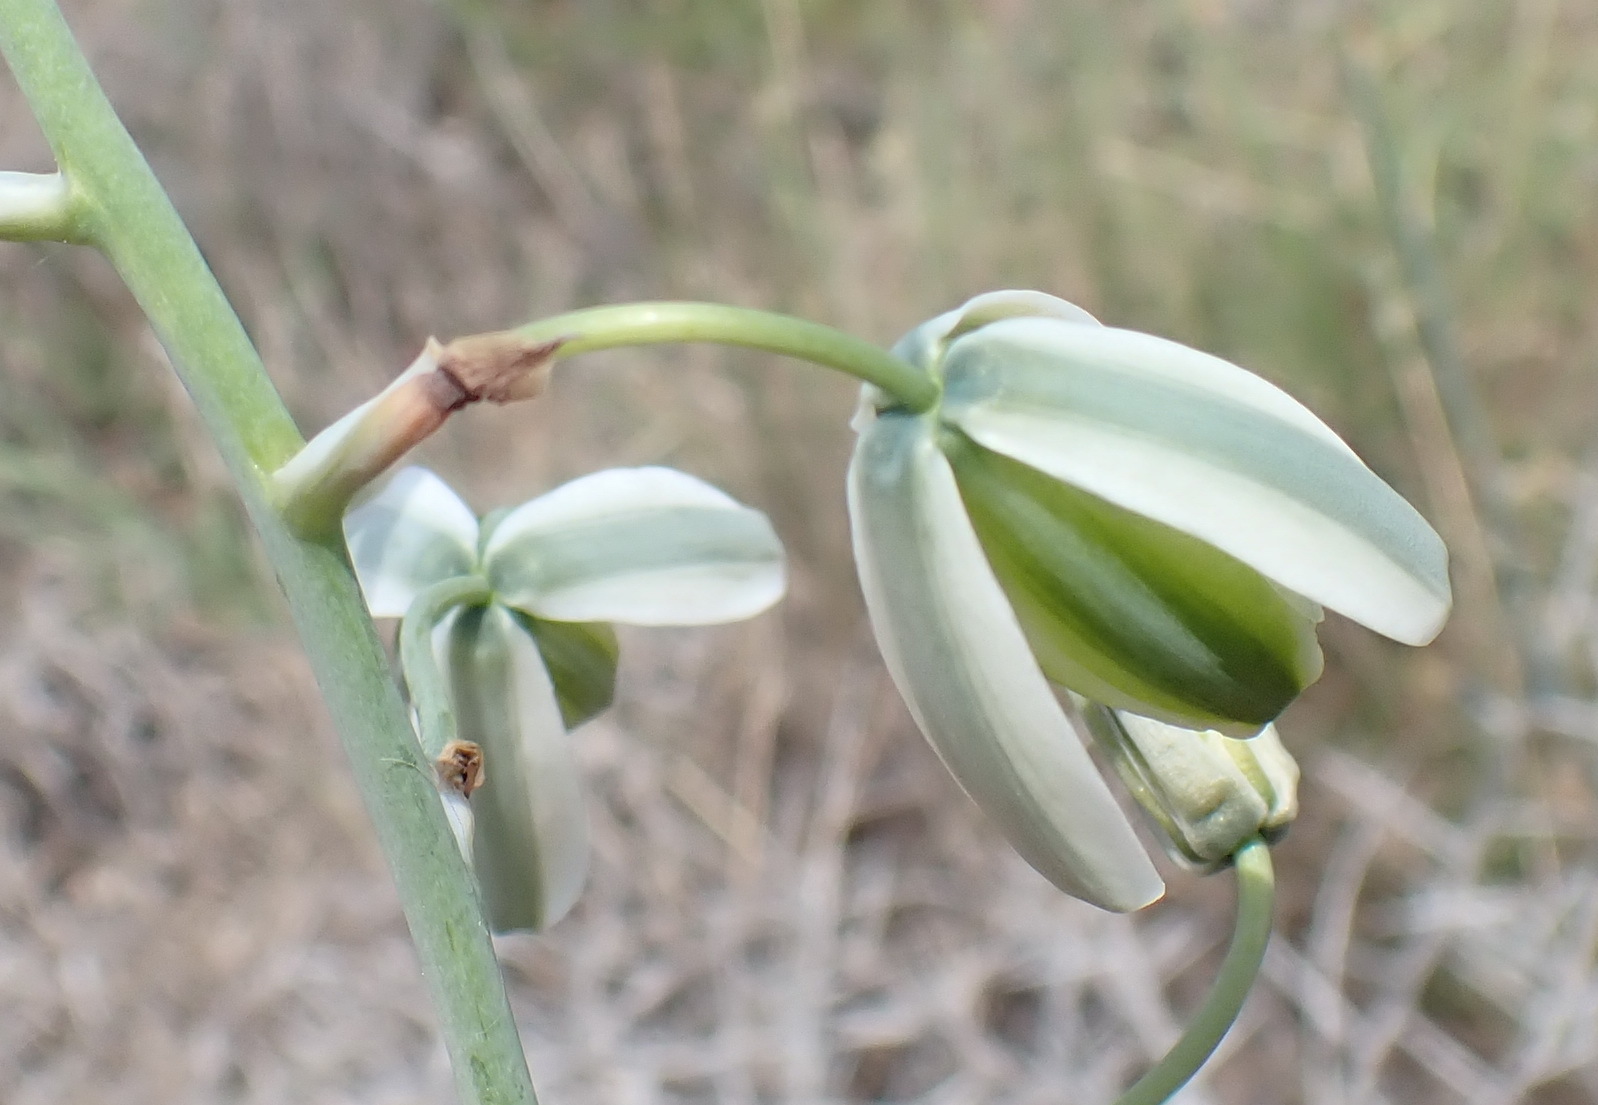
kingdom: Plantae
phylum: Tracheophyta
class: Liliopsida
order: Asparagales
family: Asparagaceae
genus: Albuca
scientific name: Albuca canadensis
